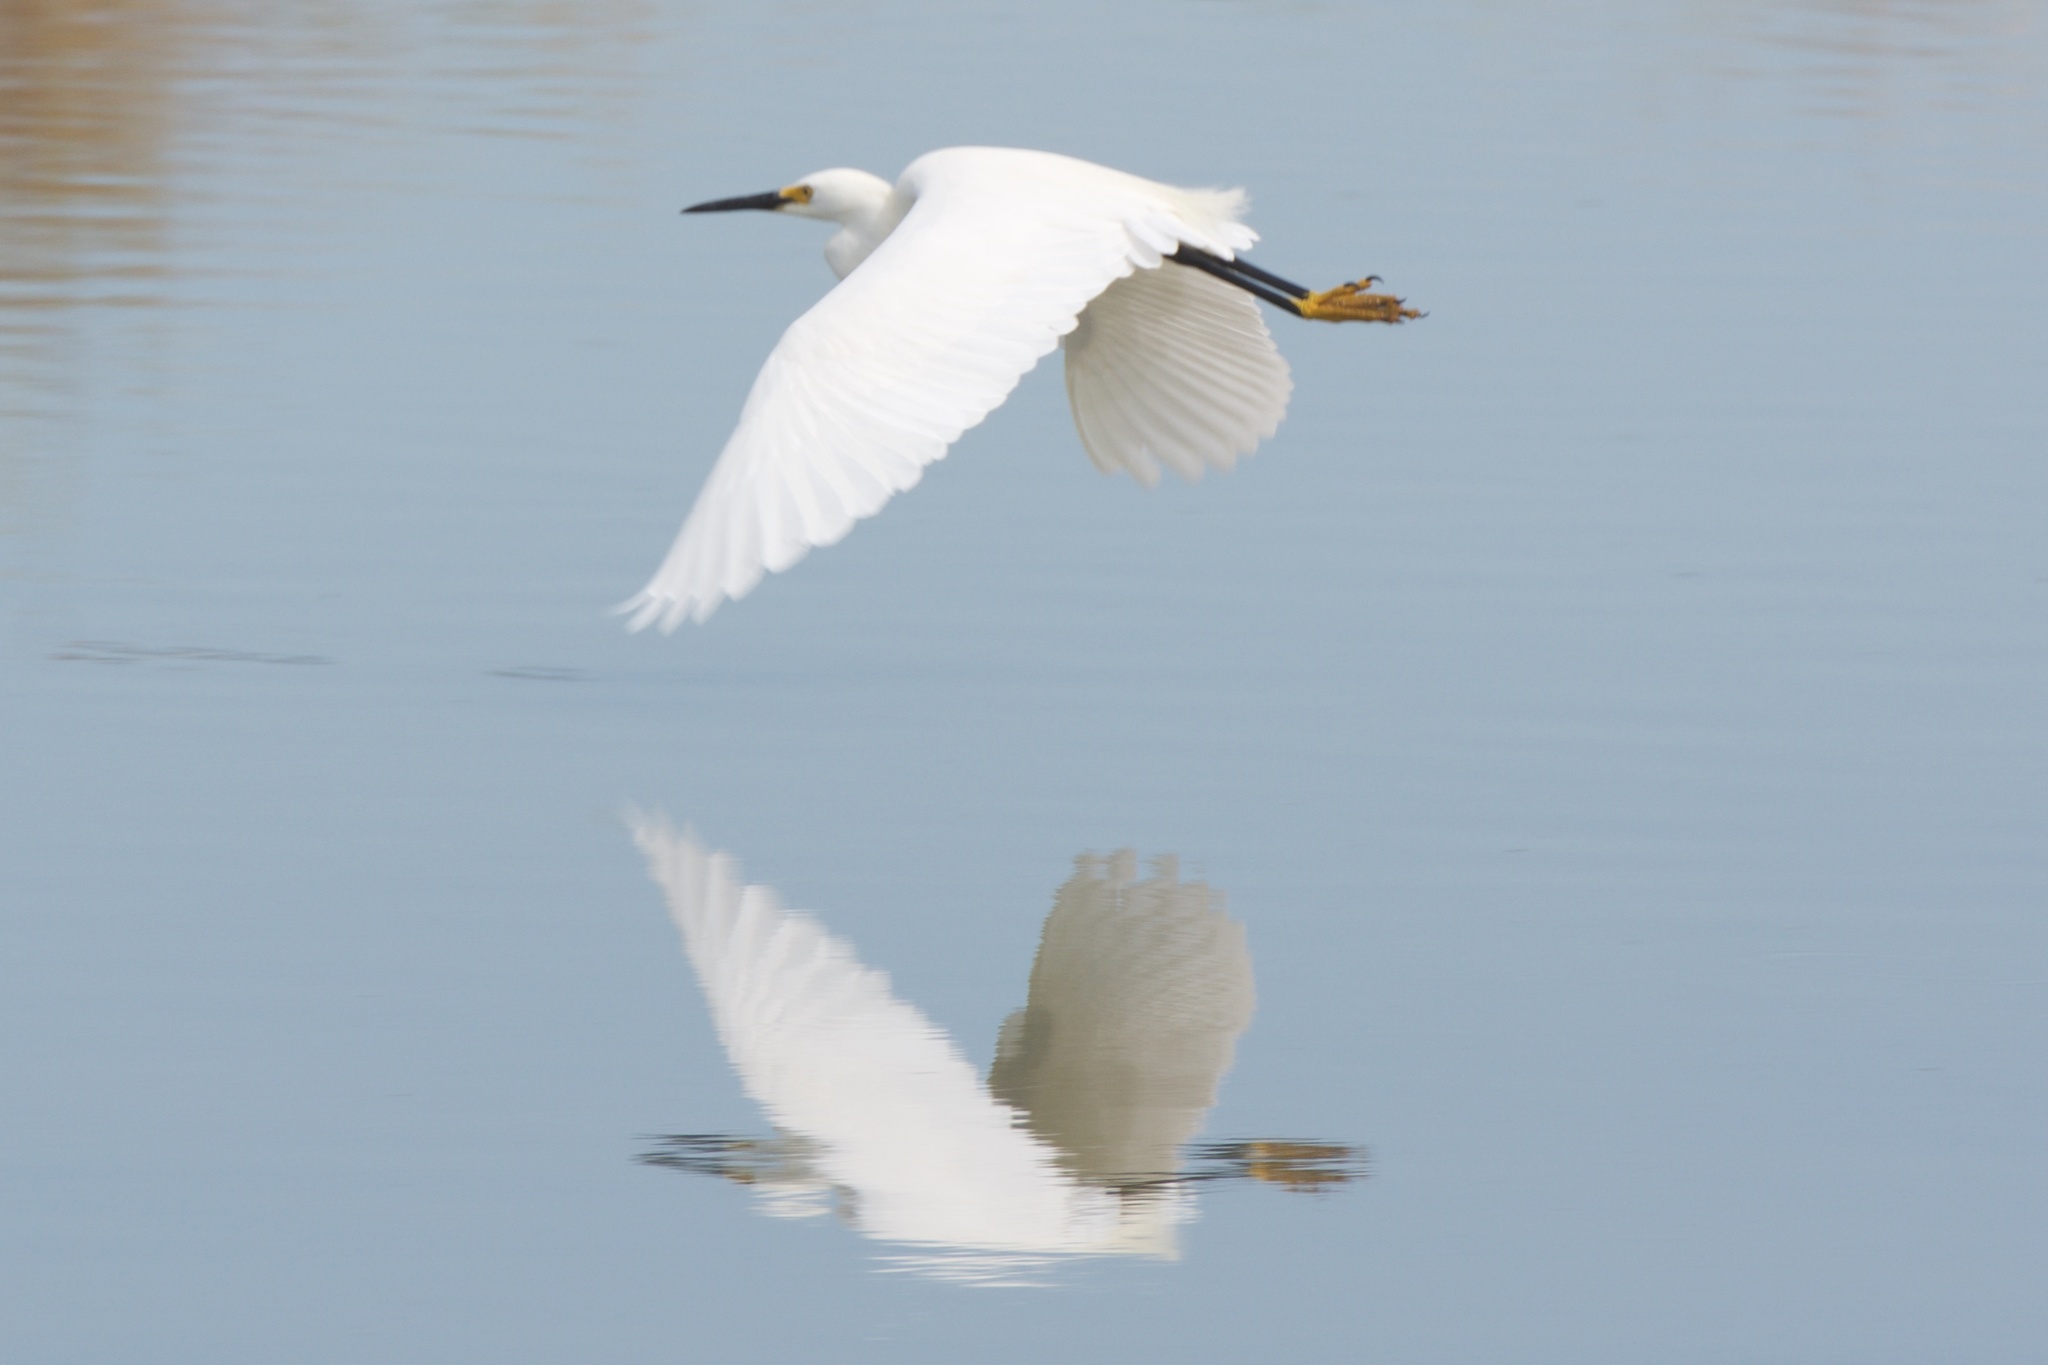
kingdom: Animalia
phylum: Chordata
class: Aves
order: Pelecaniformes
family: Ardeidae
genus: Egretta
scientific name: Egretta thula
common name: Snowy egret
